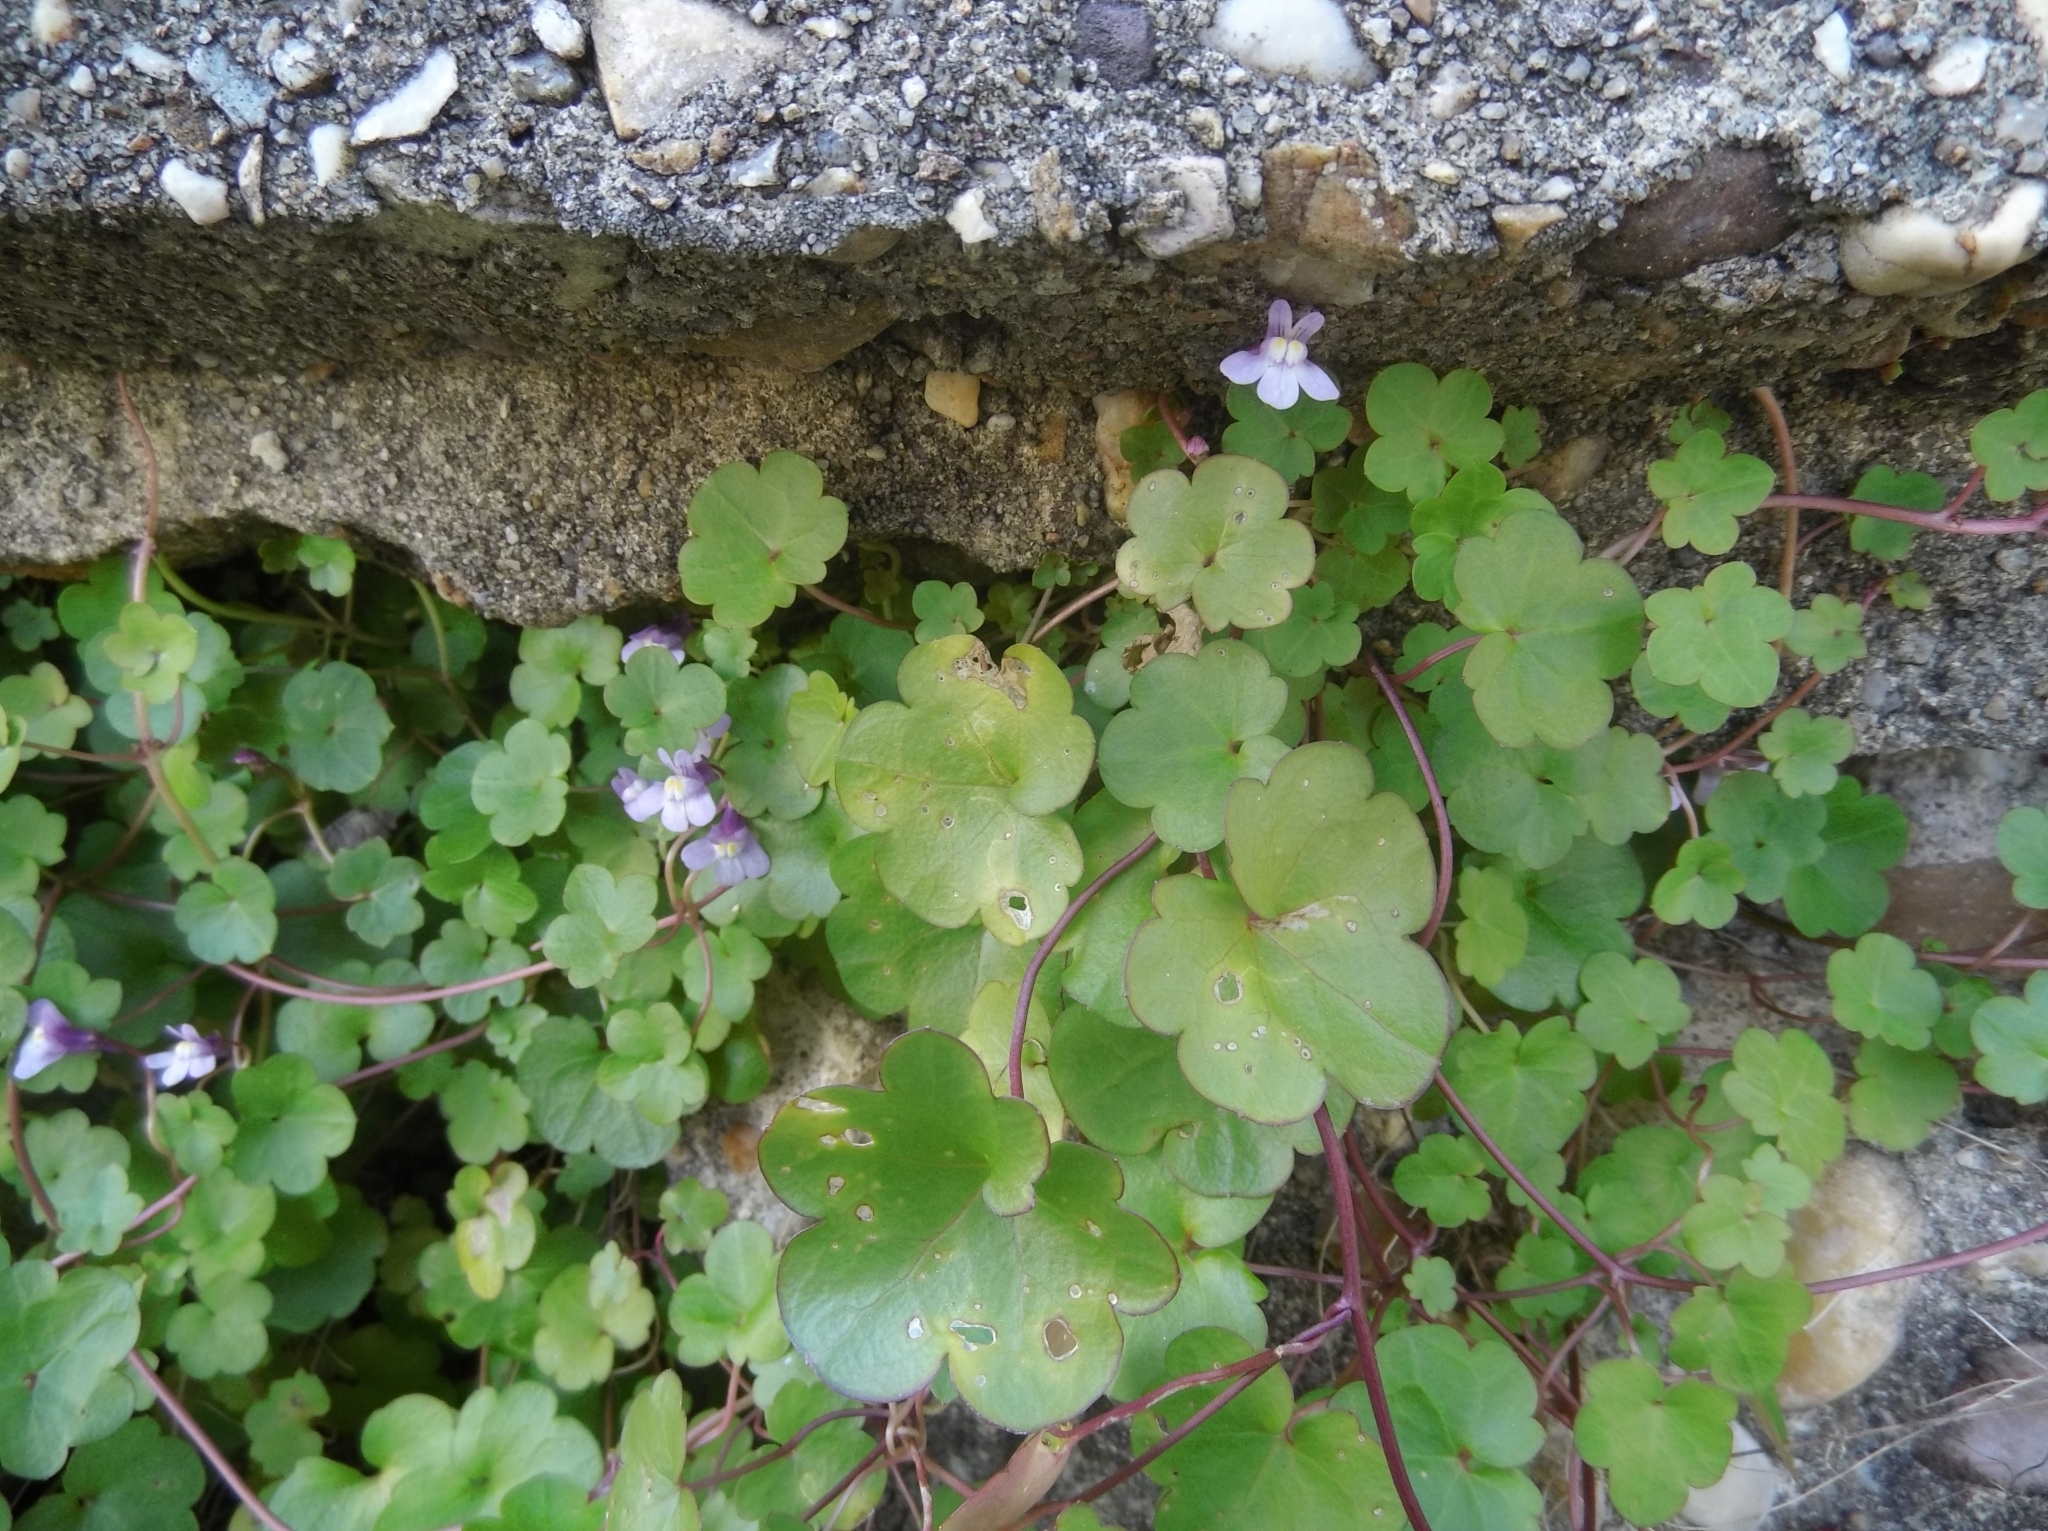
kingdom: Plantae
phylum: Tracheophyta
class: Magnoliopsida
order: Lamiales
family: Plantaginaceae
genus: Cymbalaria
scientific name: Cymbalaria muralis
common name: Ivy-leaved toadflax
